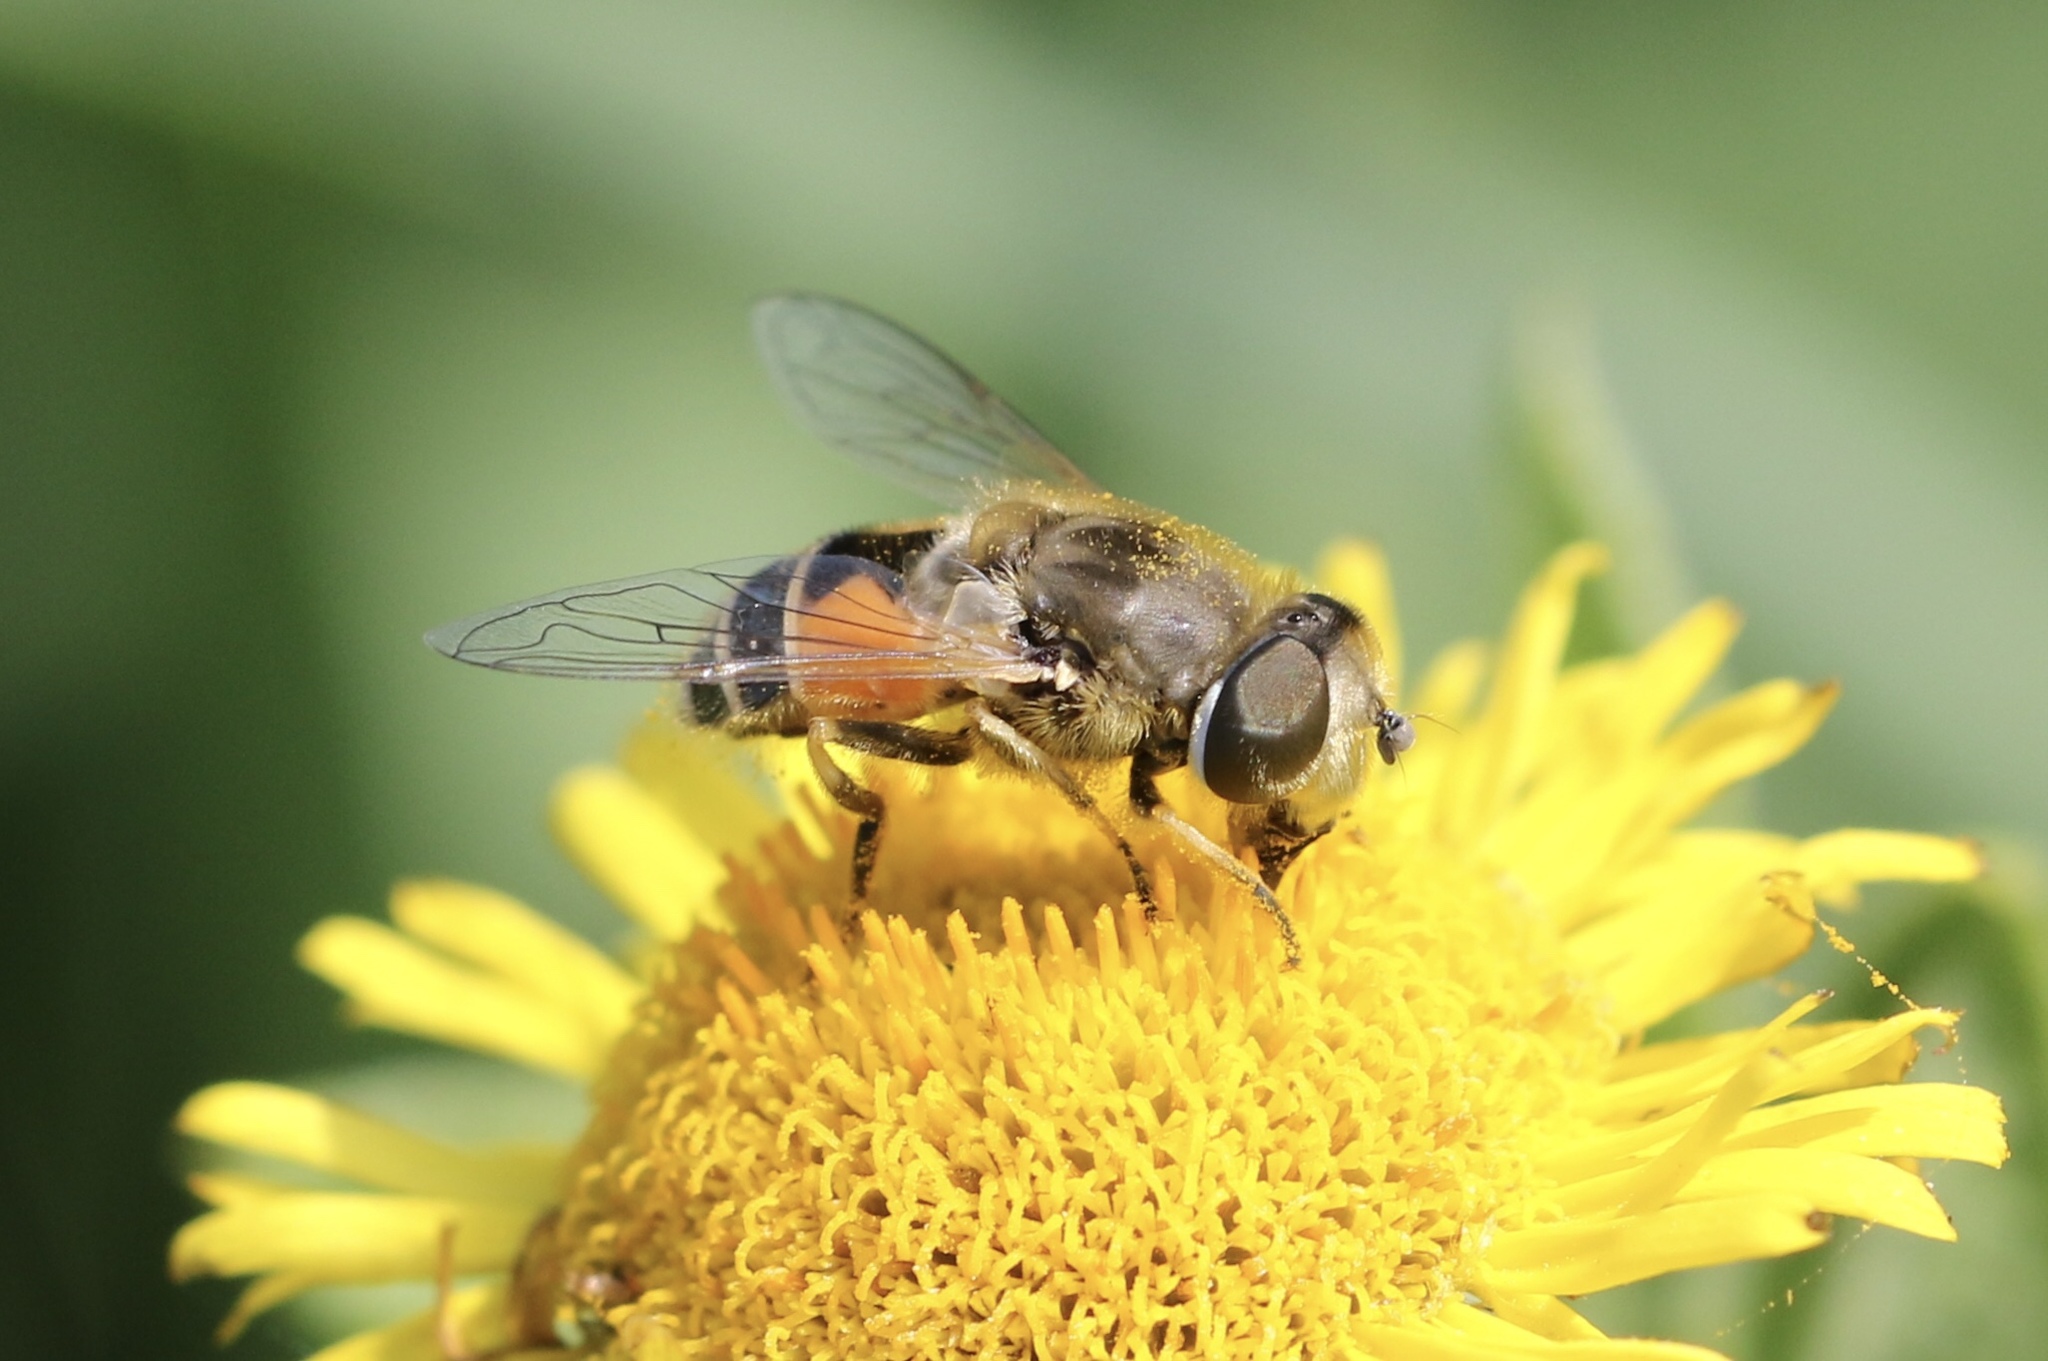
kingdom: Animalia
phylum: Arthropoda
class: Insecta
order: Diptera
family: Syrphidae
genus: Eristalis
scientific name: Eristalis arbustorum
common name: Hover fly
